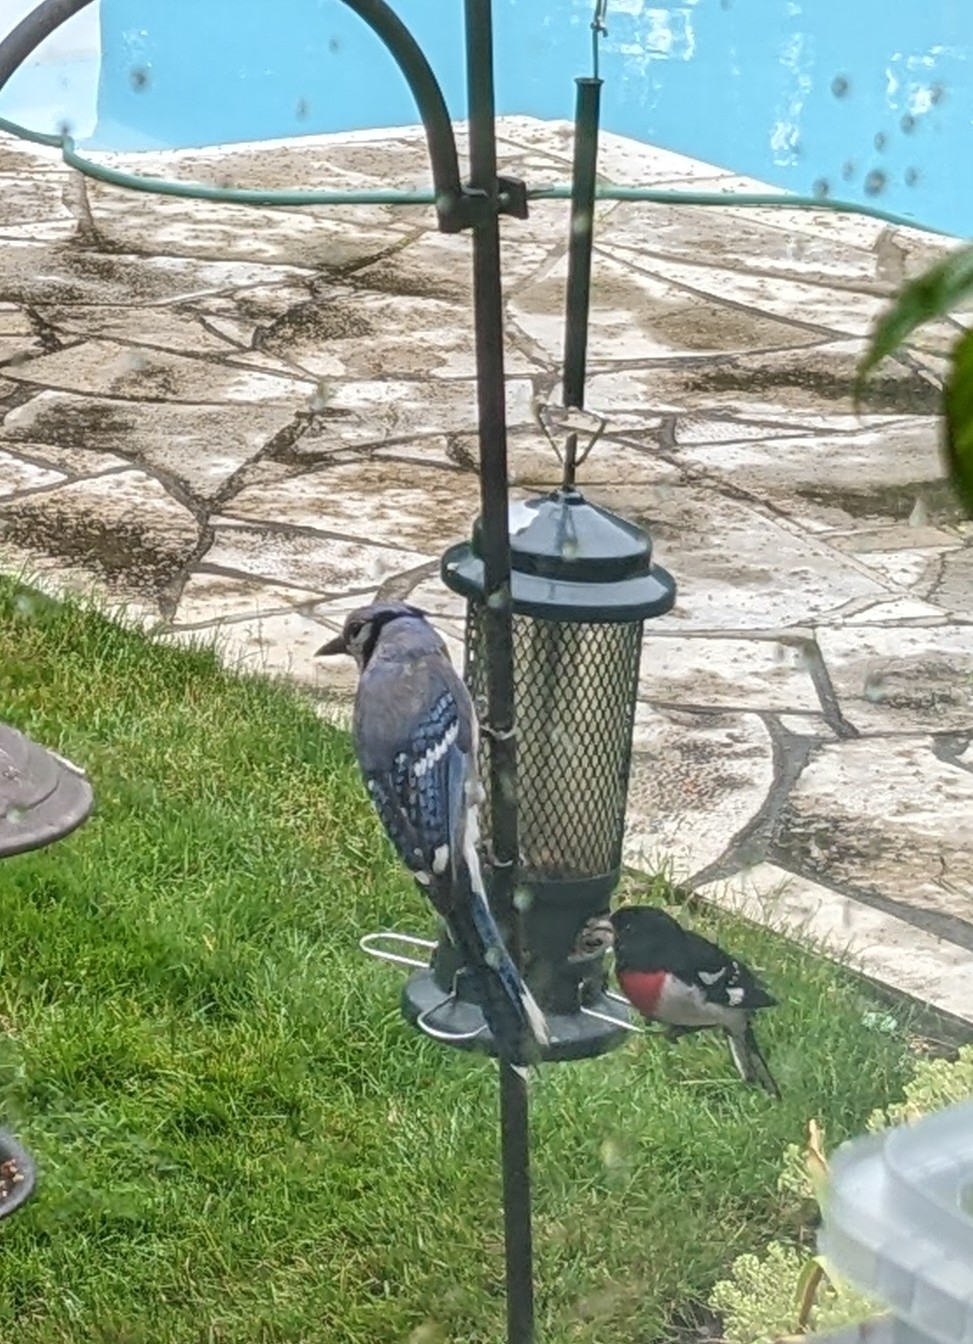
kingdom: Animalia
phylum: Chordata
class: Aves
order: Passeriformes
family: Corvidae
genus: Cyanocitta
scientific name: Cyanocitta cristata
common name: Blue jay
